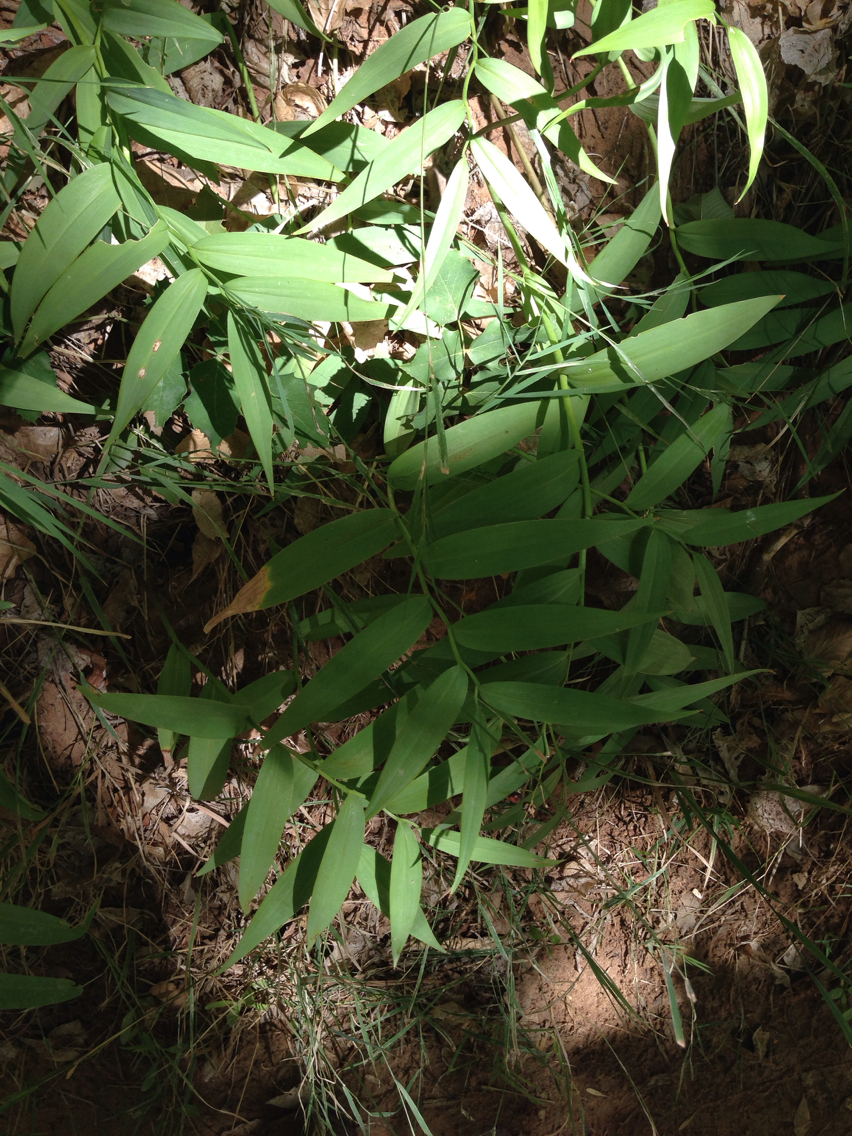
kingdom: Plantae
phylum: Tracheophyta
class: Liliopsida
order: Asparagales
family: Asparagaceae
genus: Maianthemum
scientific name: Maianthemum stellatum
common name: Little false solomon's seal
